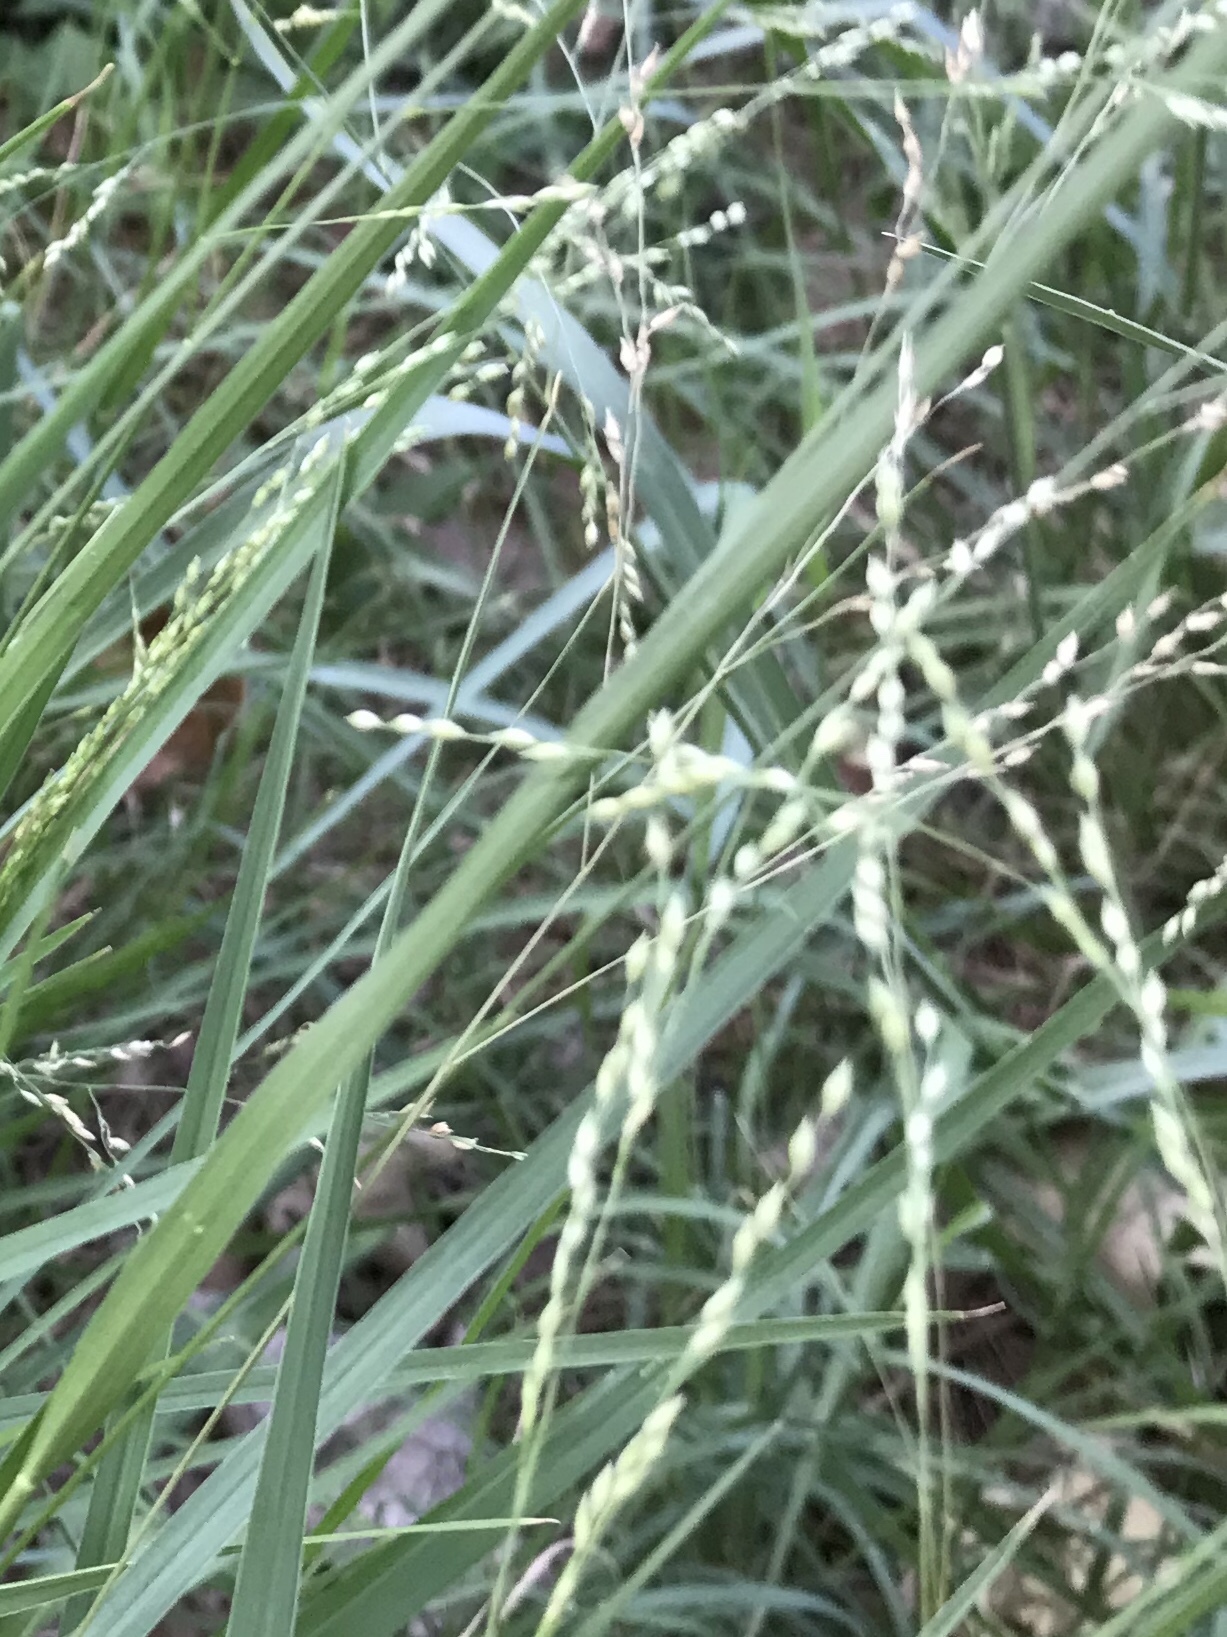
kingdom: Plantae
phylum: Tracheophyta
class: Liliopsida
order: Poales
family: Poaceae
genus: Panicum
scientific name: Panicum coloratum
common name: Kleingrass
